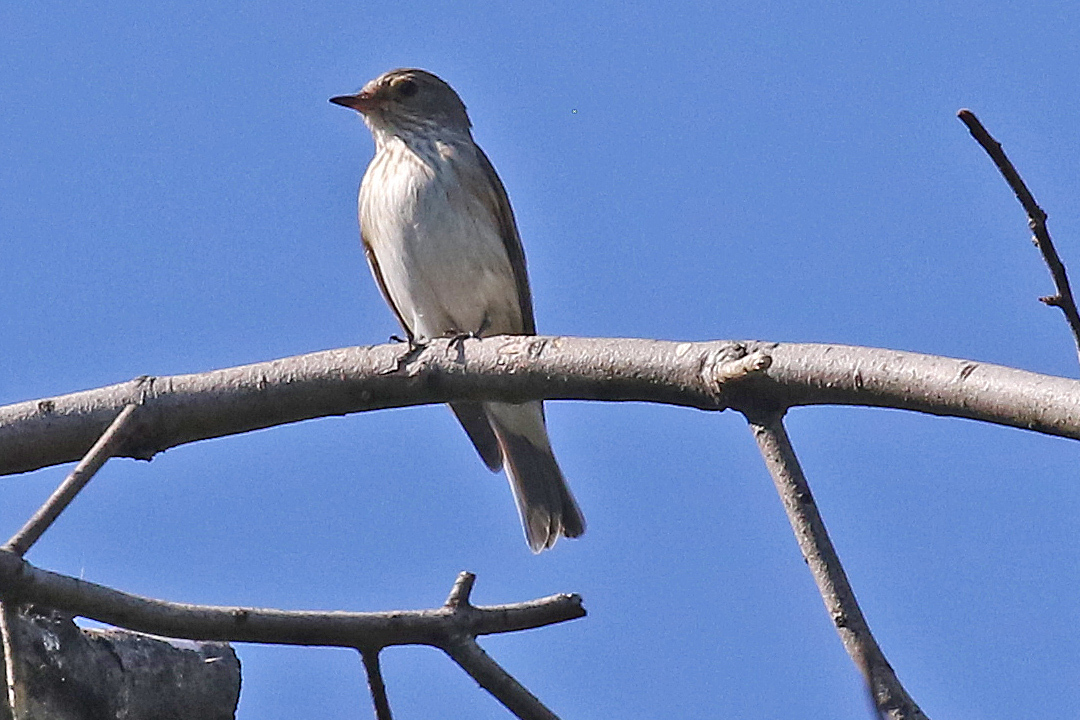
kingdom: Animalia
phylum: Chordata
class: Aves
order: Passeriformes
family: Muscicapidae
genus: Muscicapa
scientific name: Muscicapa striata
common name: Spotted flycatcher
